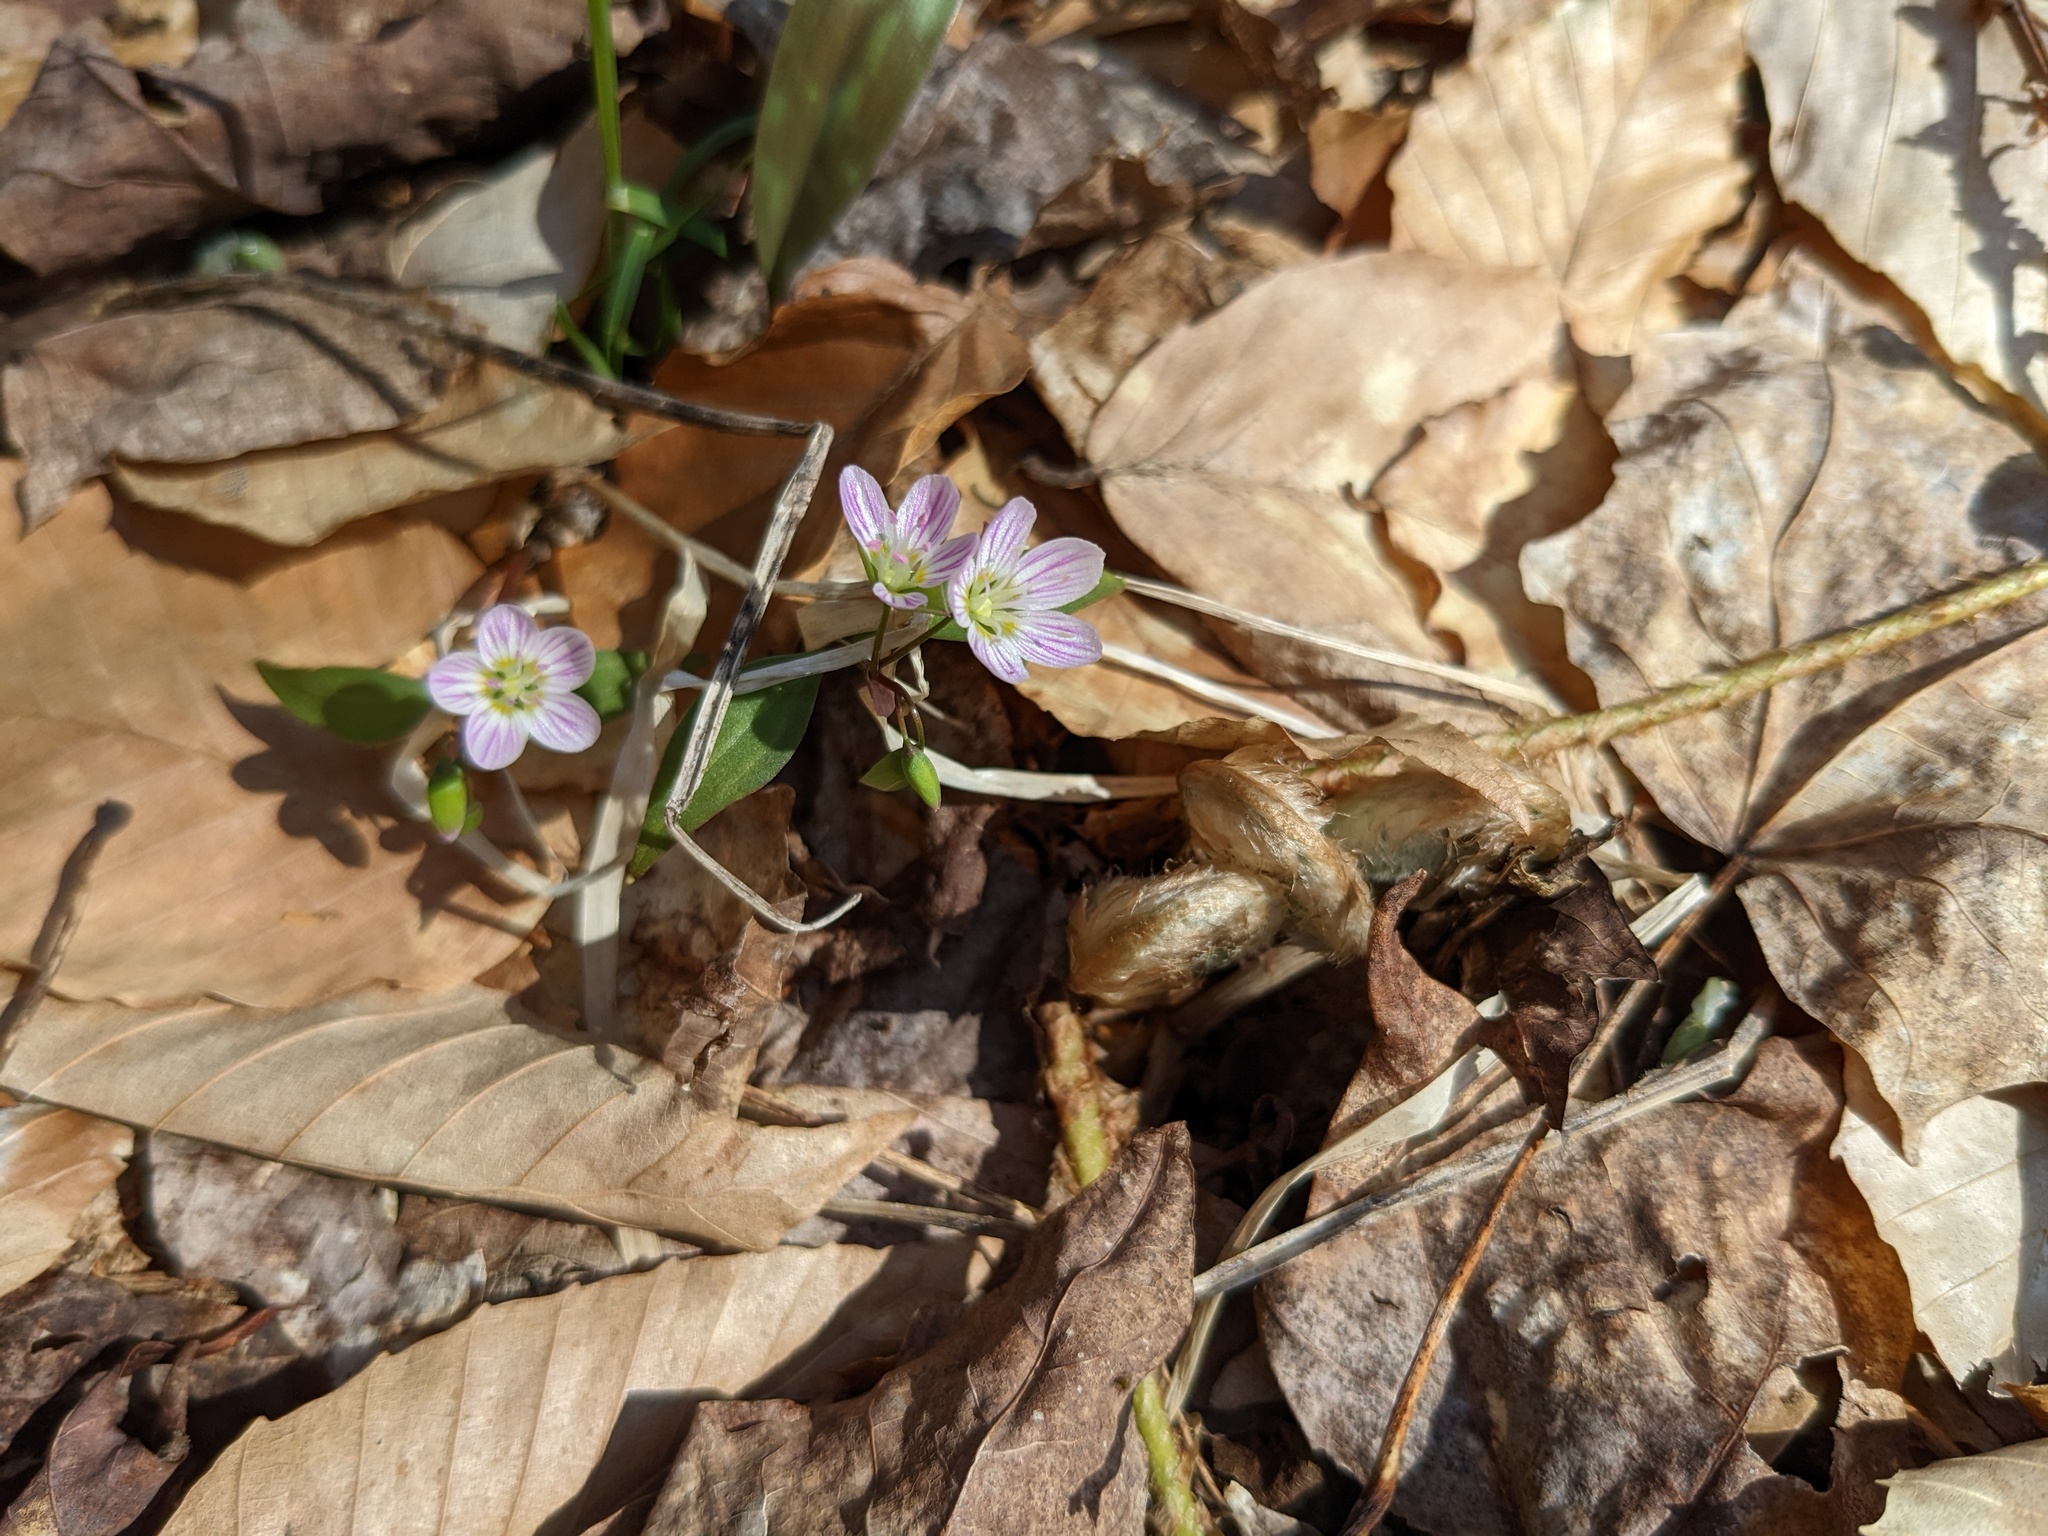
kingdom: Plantae
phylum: Tracheophyta
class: Magnoliopsida
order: Caryophyllales
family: Montiaceae
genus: Claytonia
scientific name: Claytonia caroliniana
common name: Carolina spring beauty
